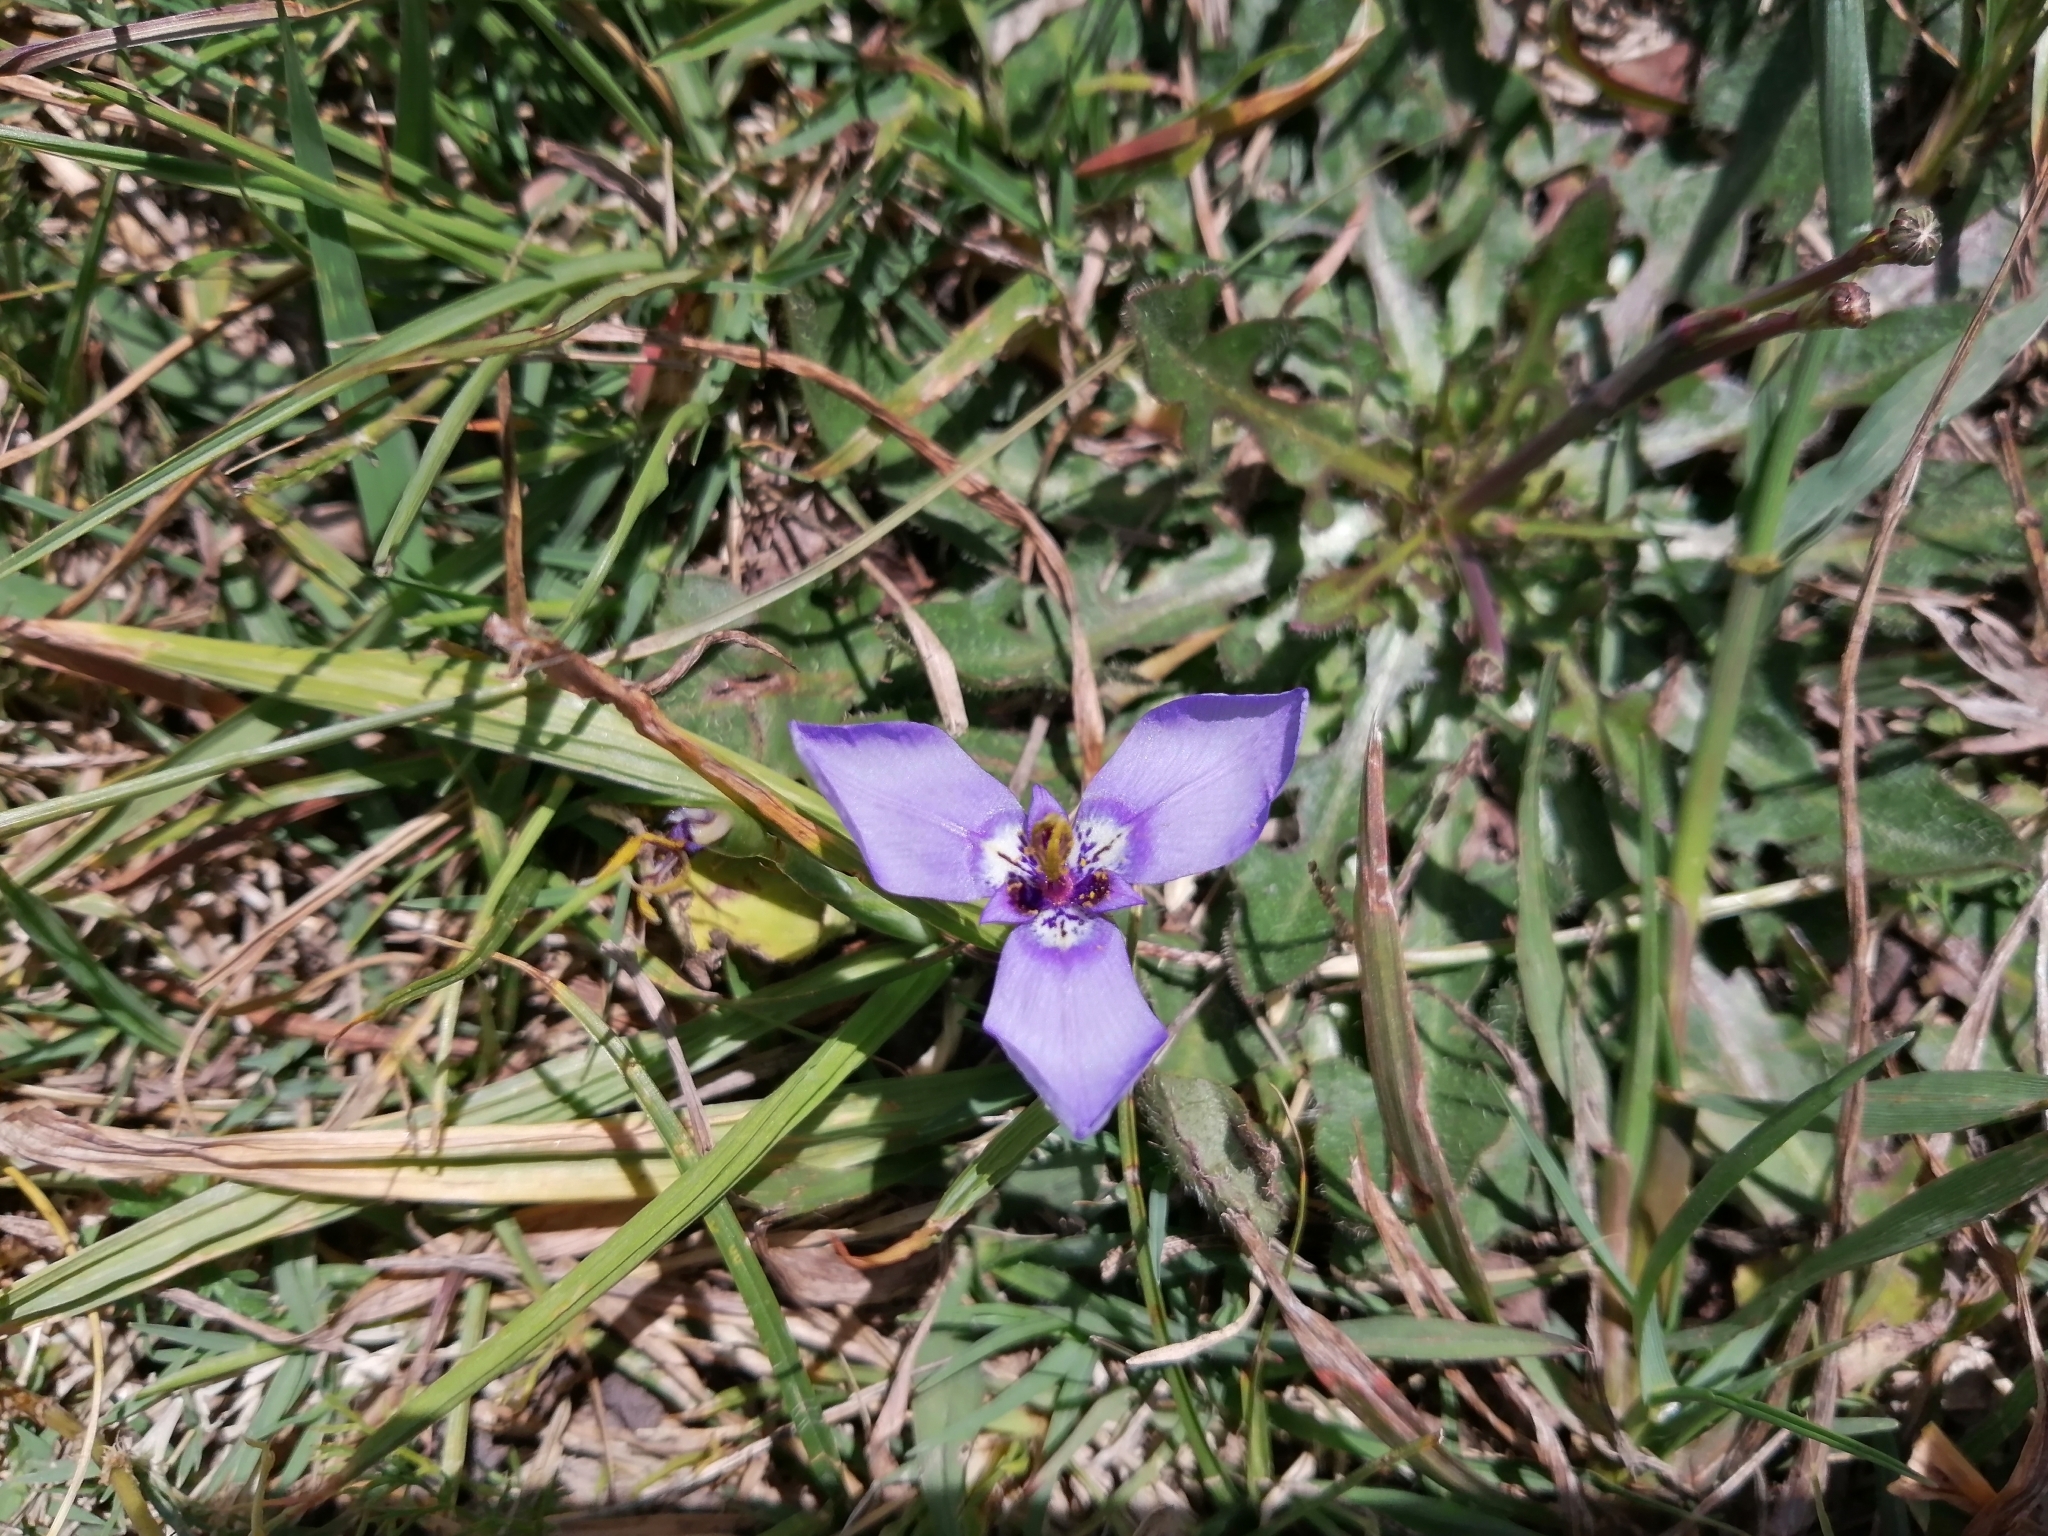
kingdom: Plantae
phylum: Tracheophyta
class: Liliopsida
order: Asparagales
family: Iridaceae
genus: Herbertia
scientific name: Herbertia lahue
